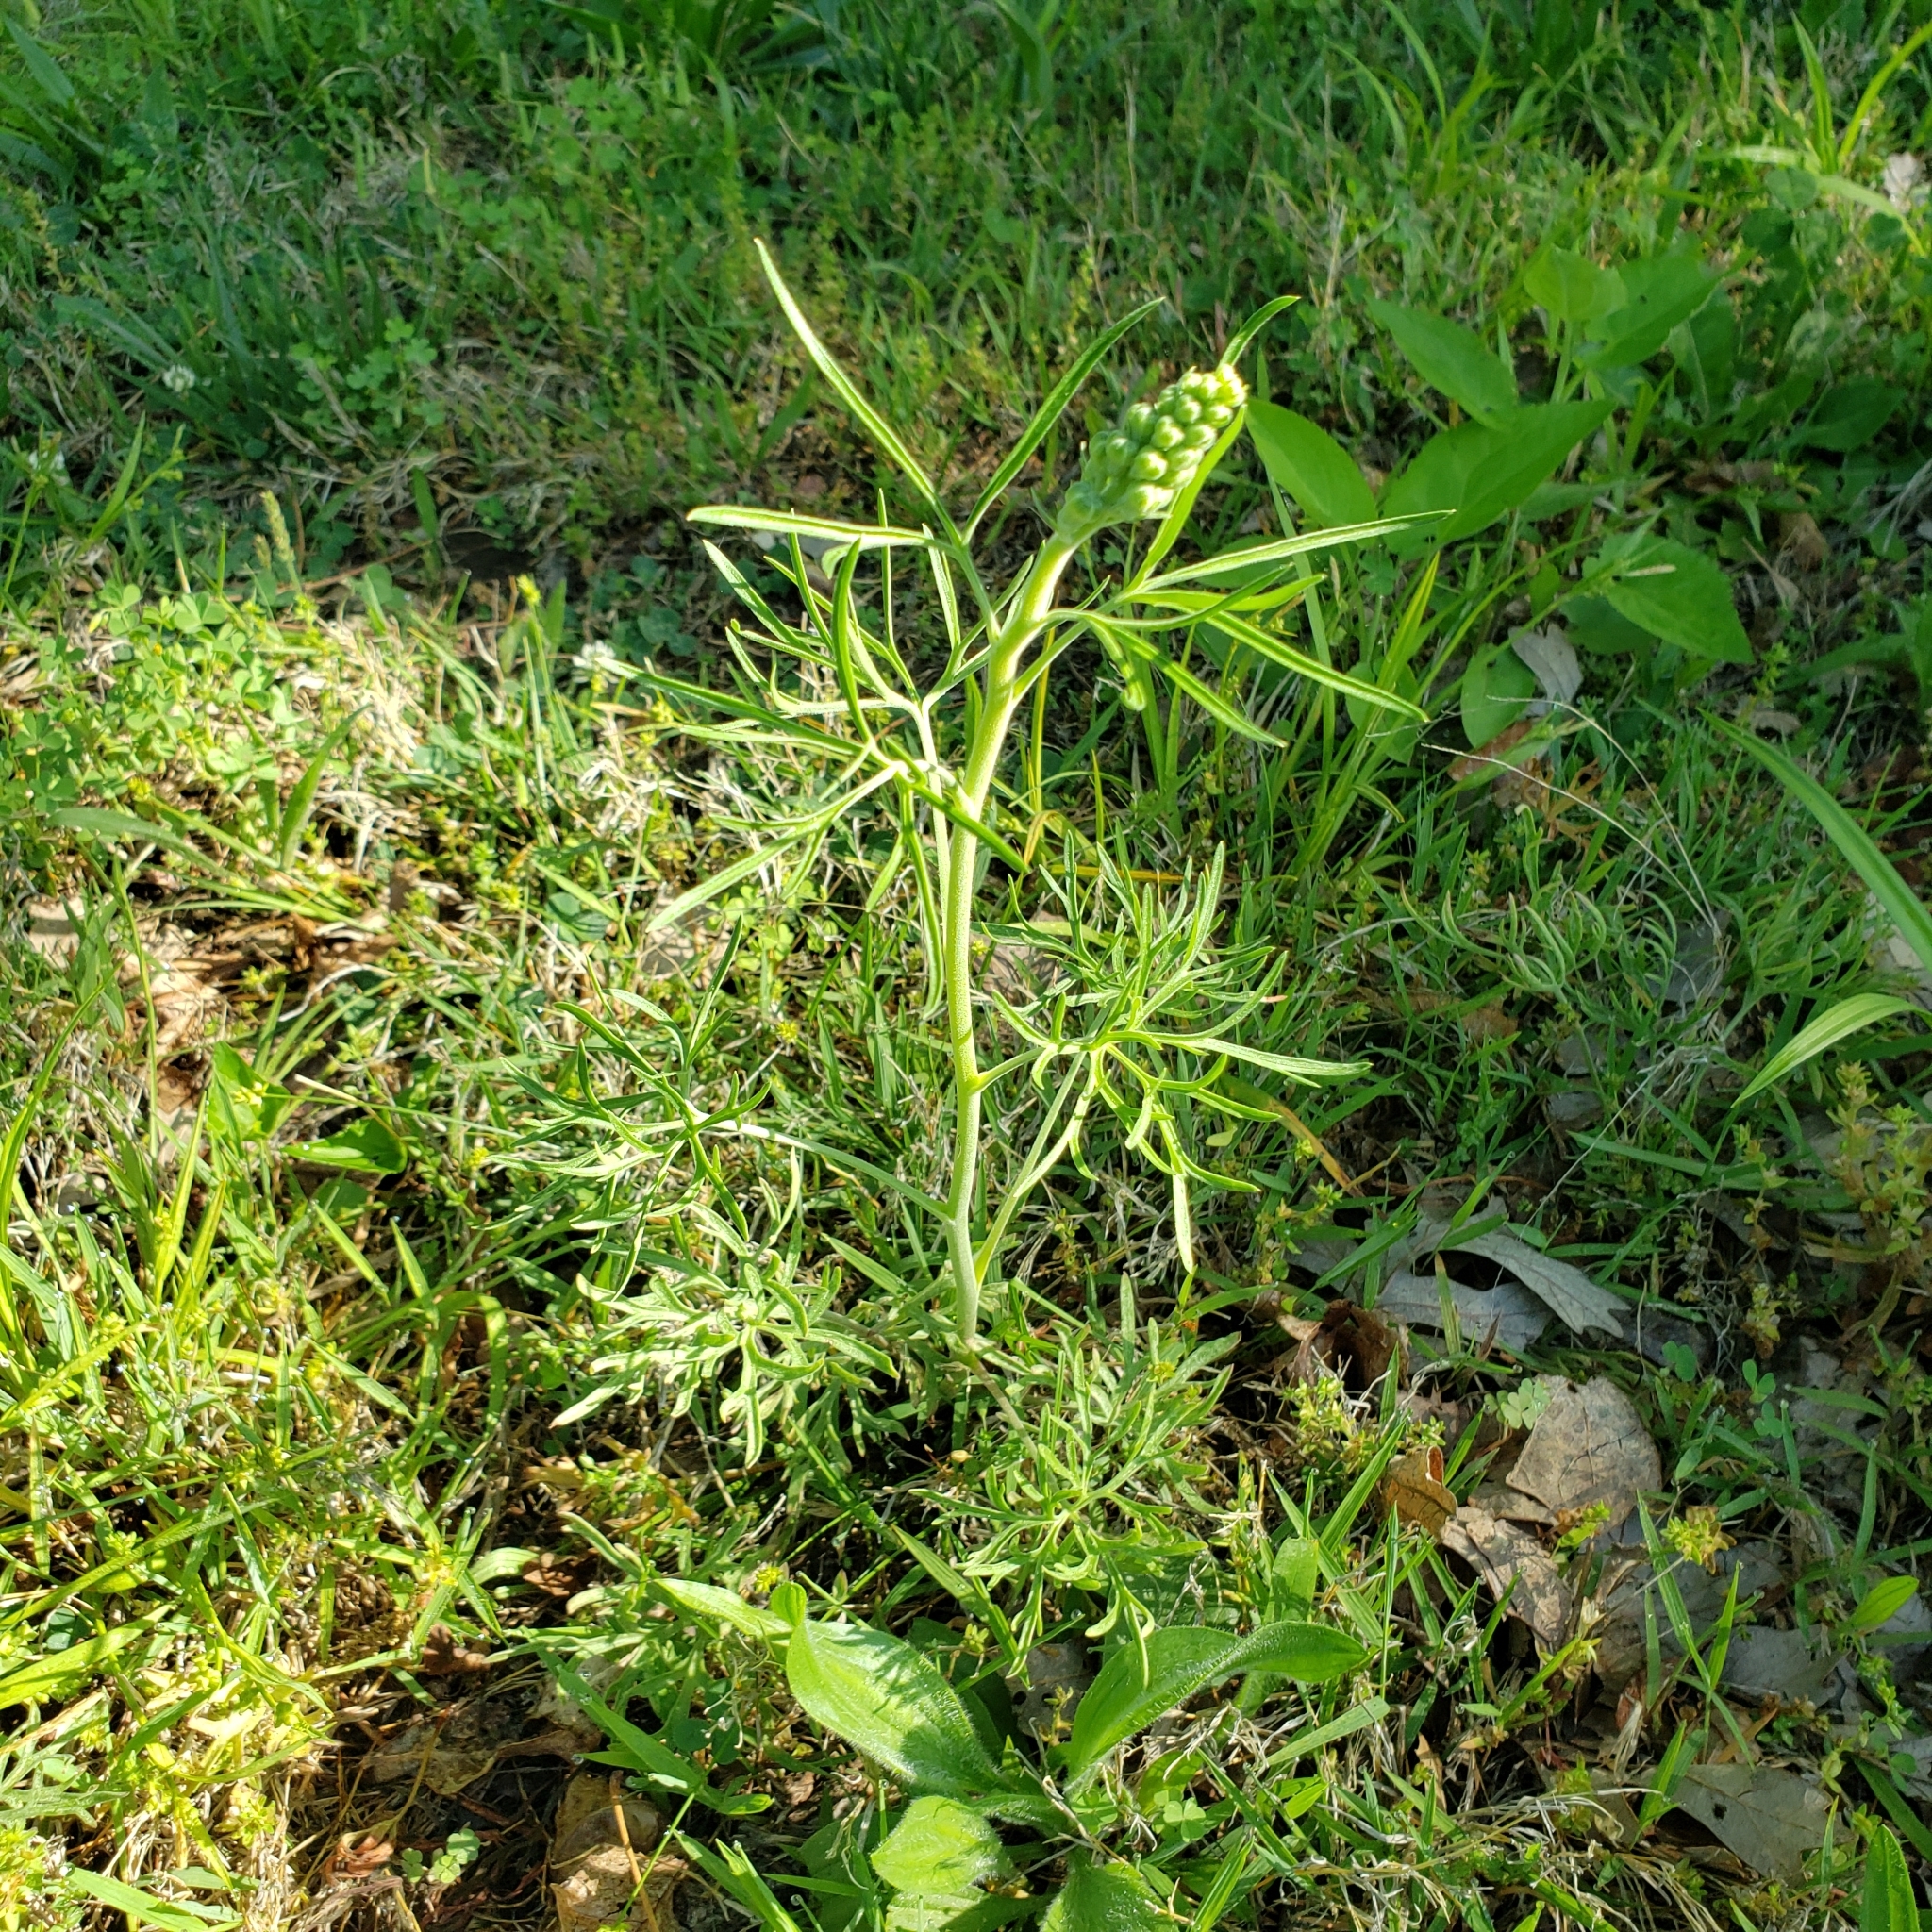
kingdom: Plantae
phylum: Tracheophyta
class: Magnoliopsida
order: Ranunculales
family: Ranunculaceae
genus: Delphinium
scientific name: Delphinium carolinianum
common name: Carolina larkspur
